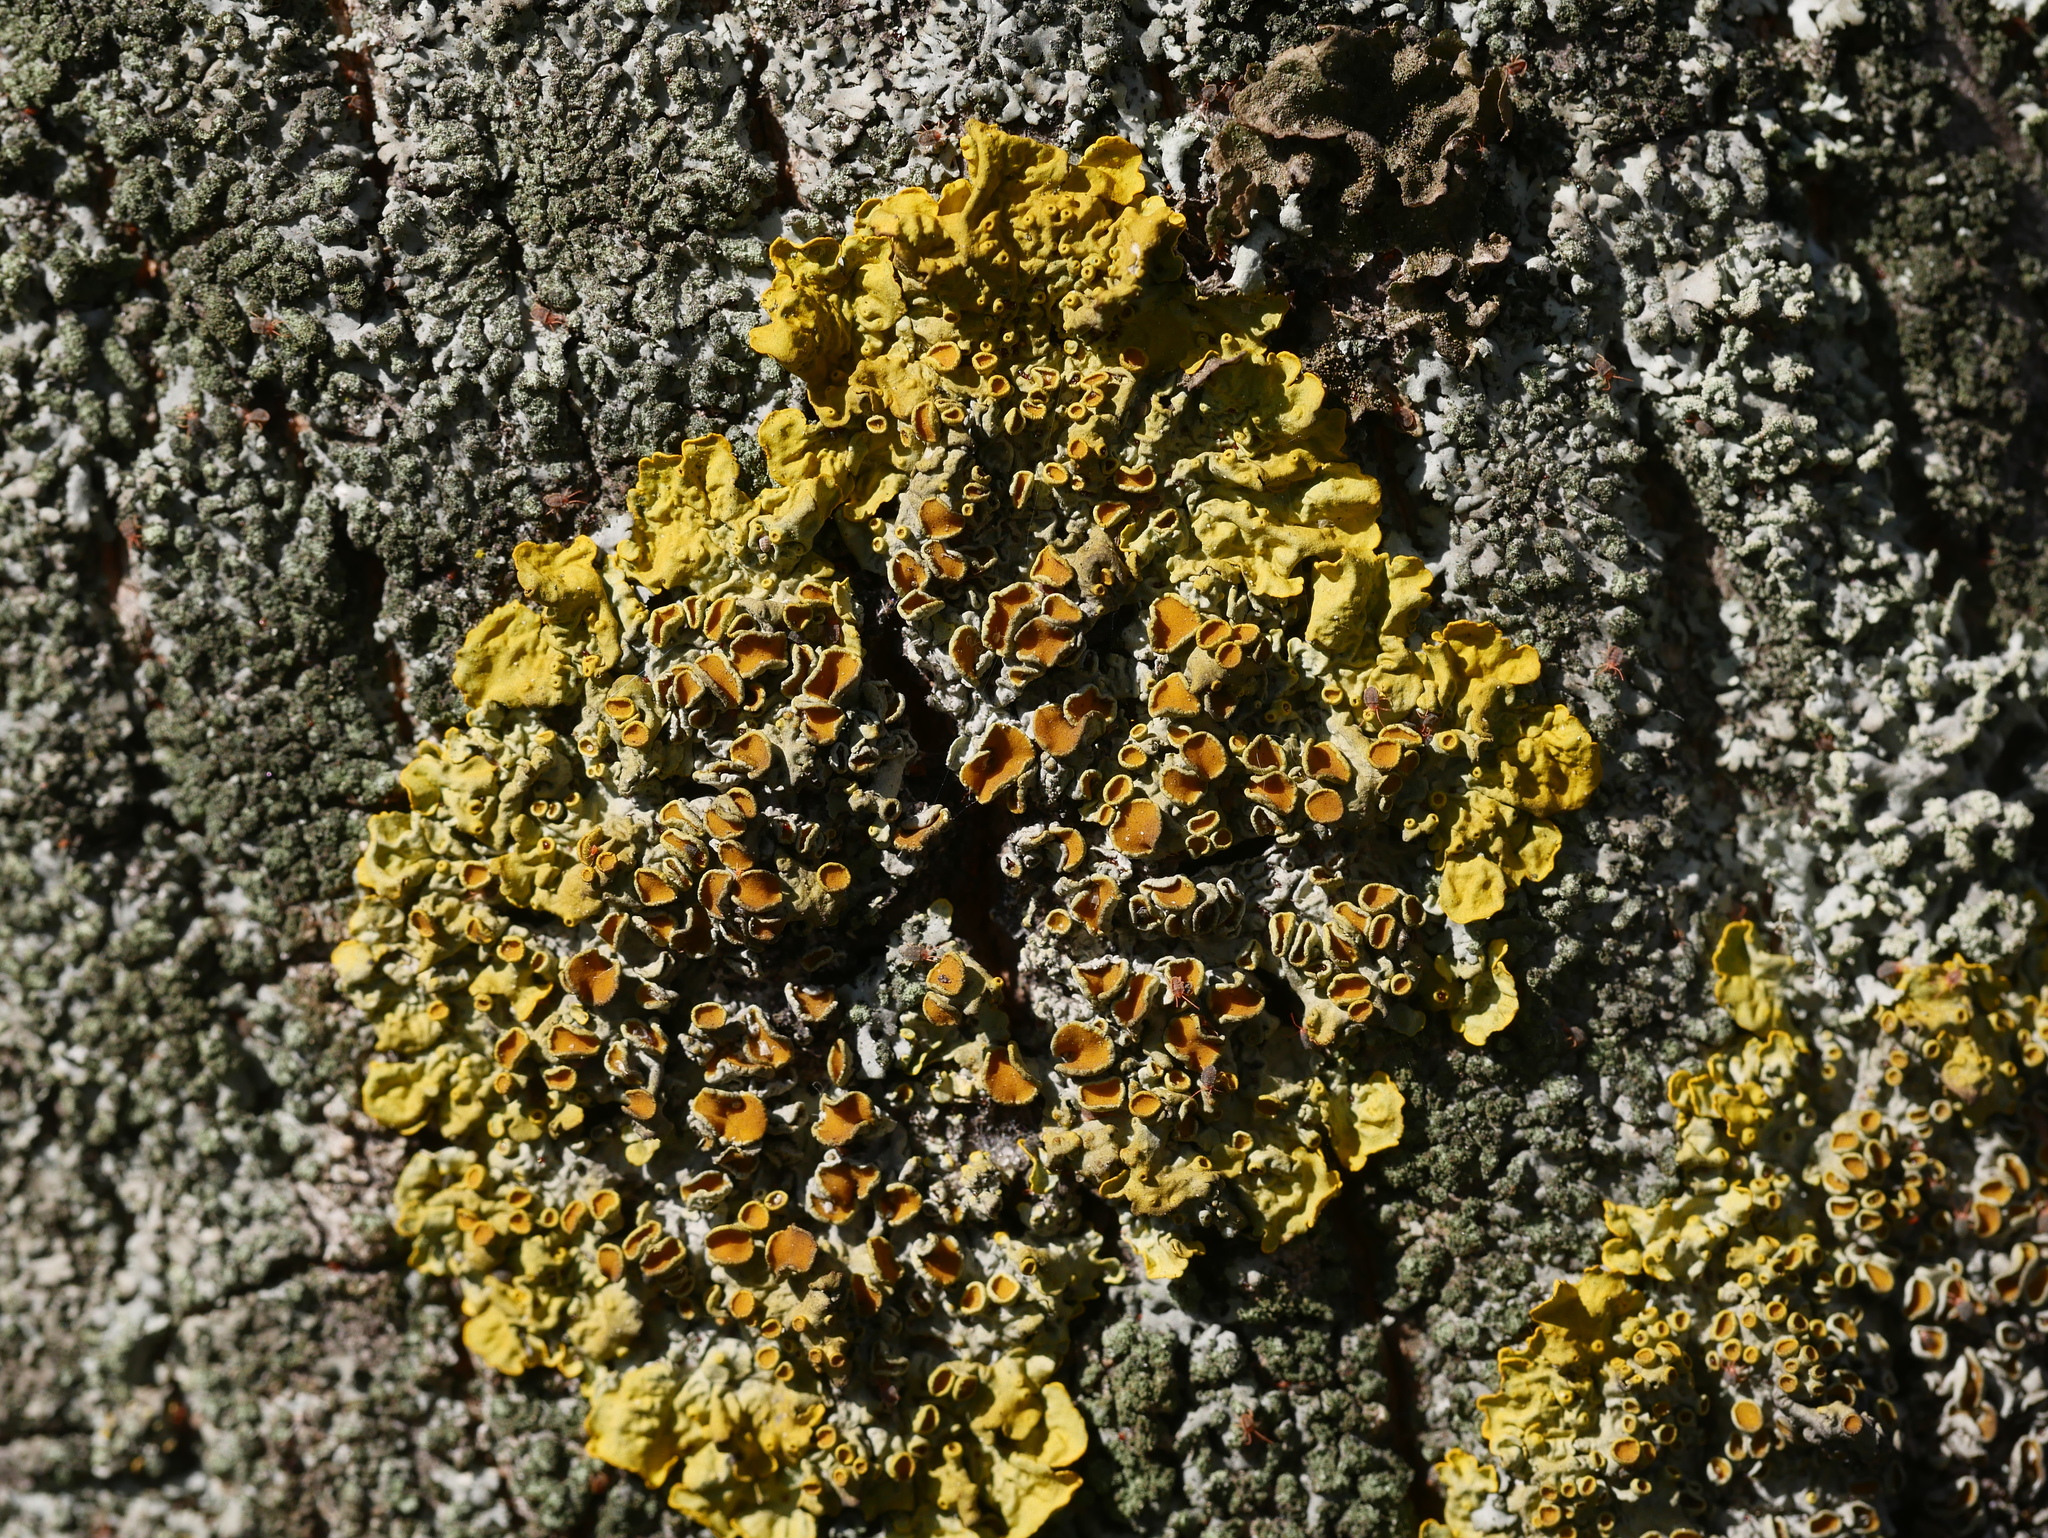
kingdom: Fungi
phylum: Ascomycota
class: Lecanoromycetes
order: Teloschistales
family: Teloschistaceae
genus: Xanthoria
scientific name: Xanthoria parietina
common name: Common orange lichen
